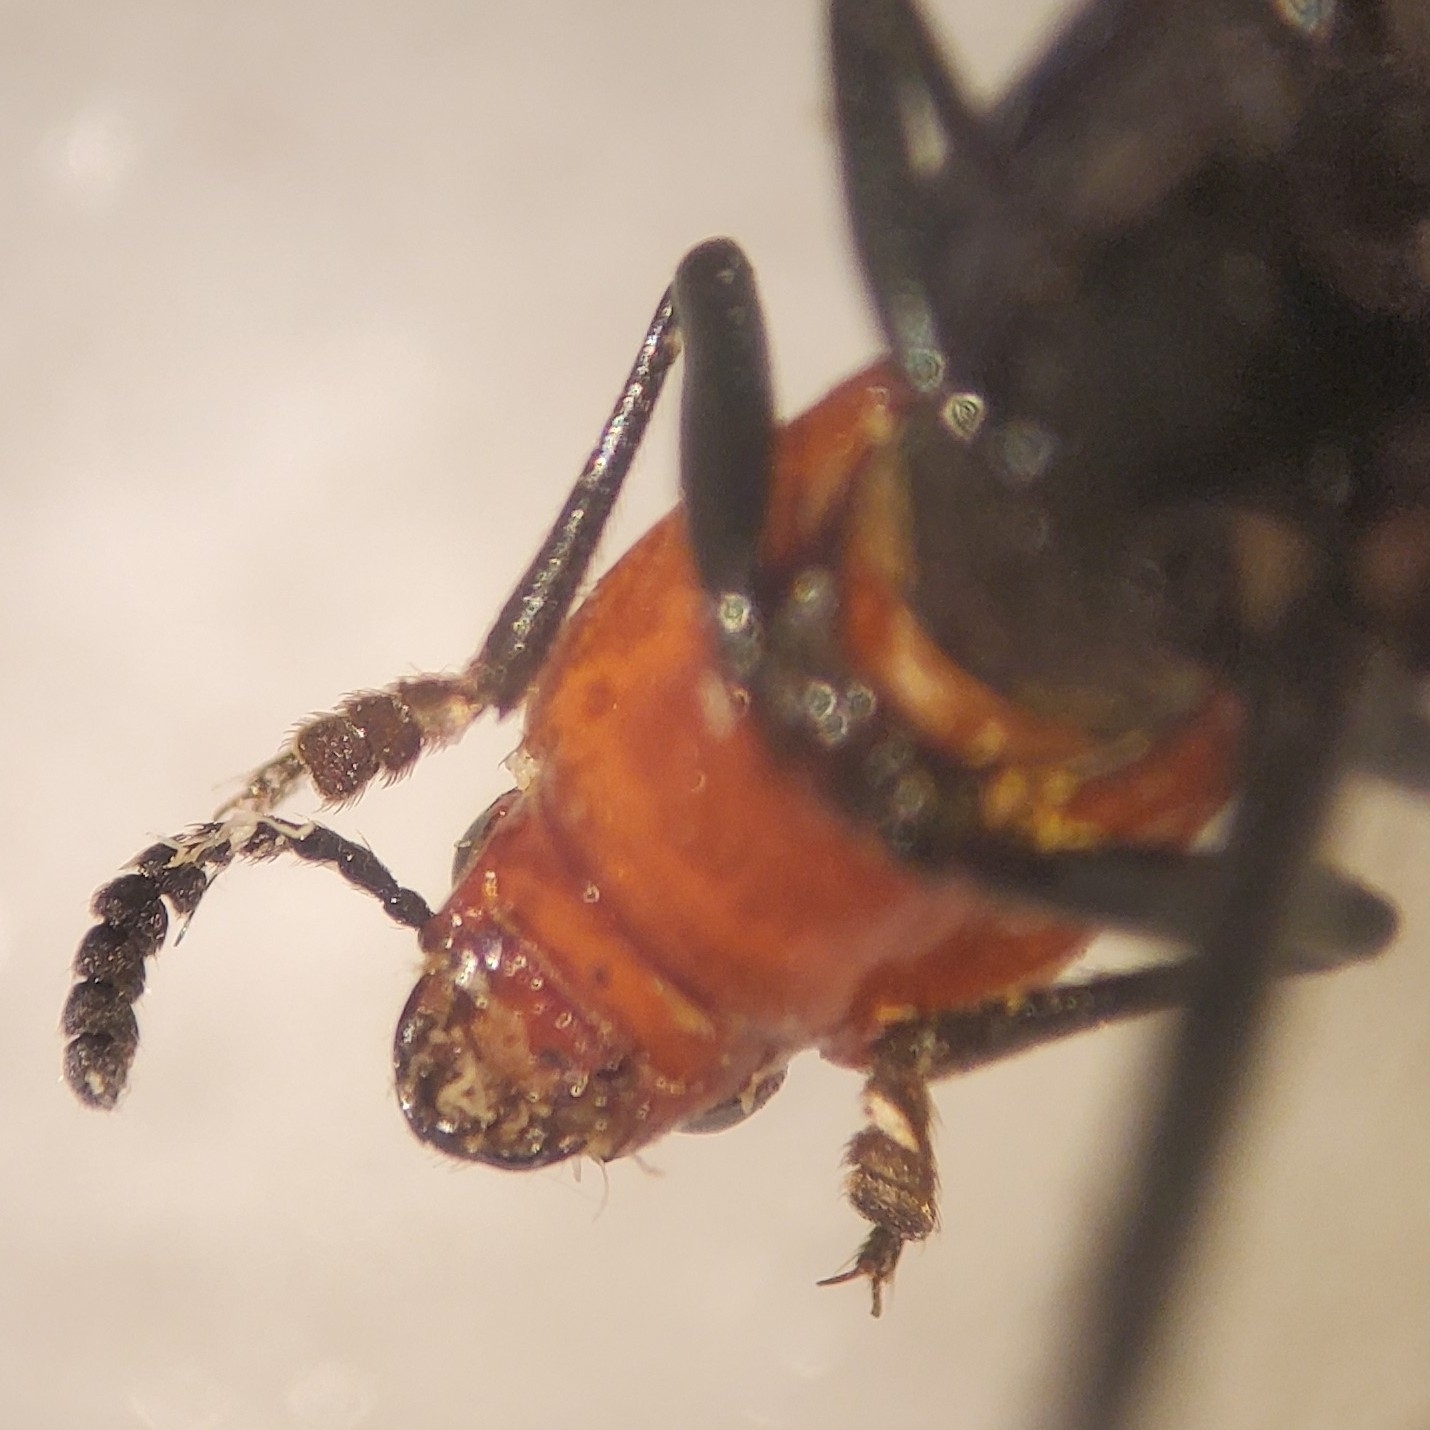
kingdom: Animalia
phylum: Arthropoda
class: Insecta
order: Coleoptera
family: Erotylidae
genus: Languria
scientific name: Languria laeta
